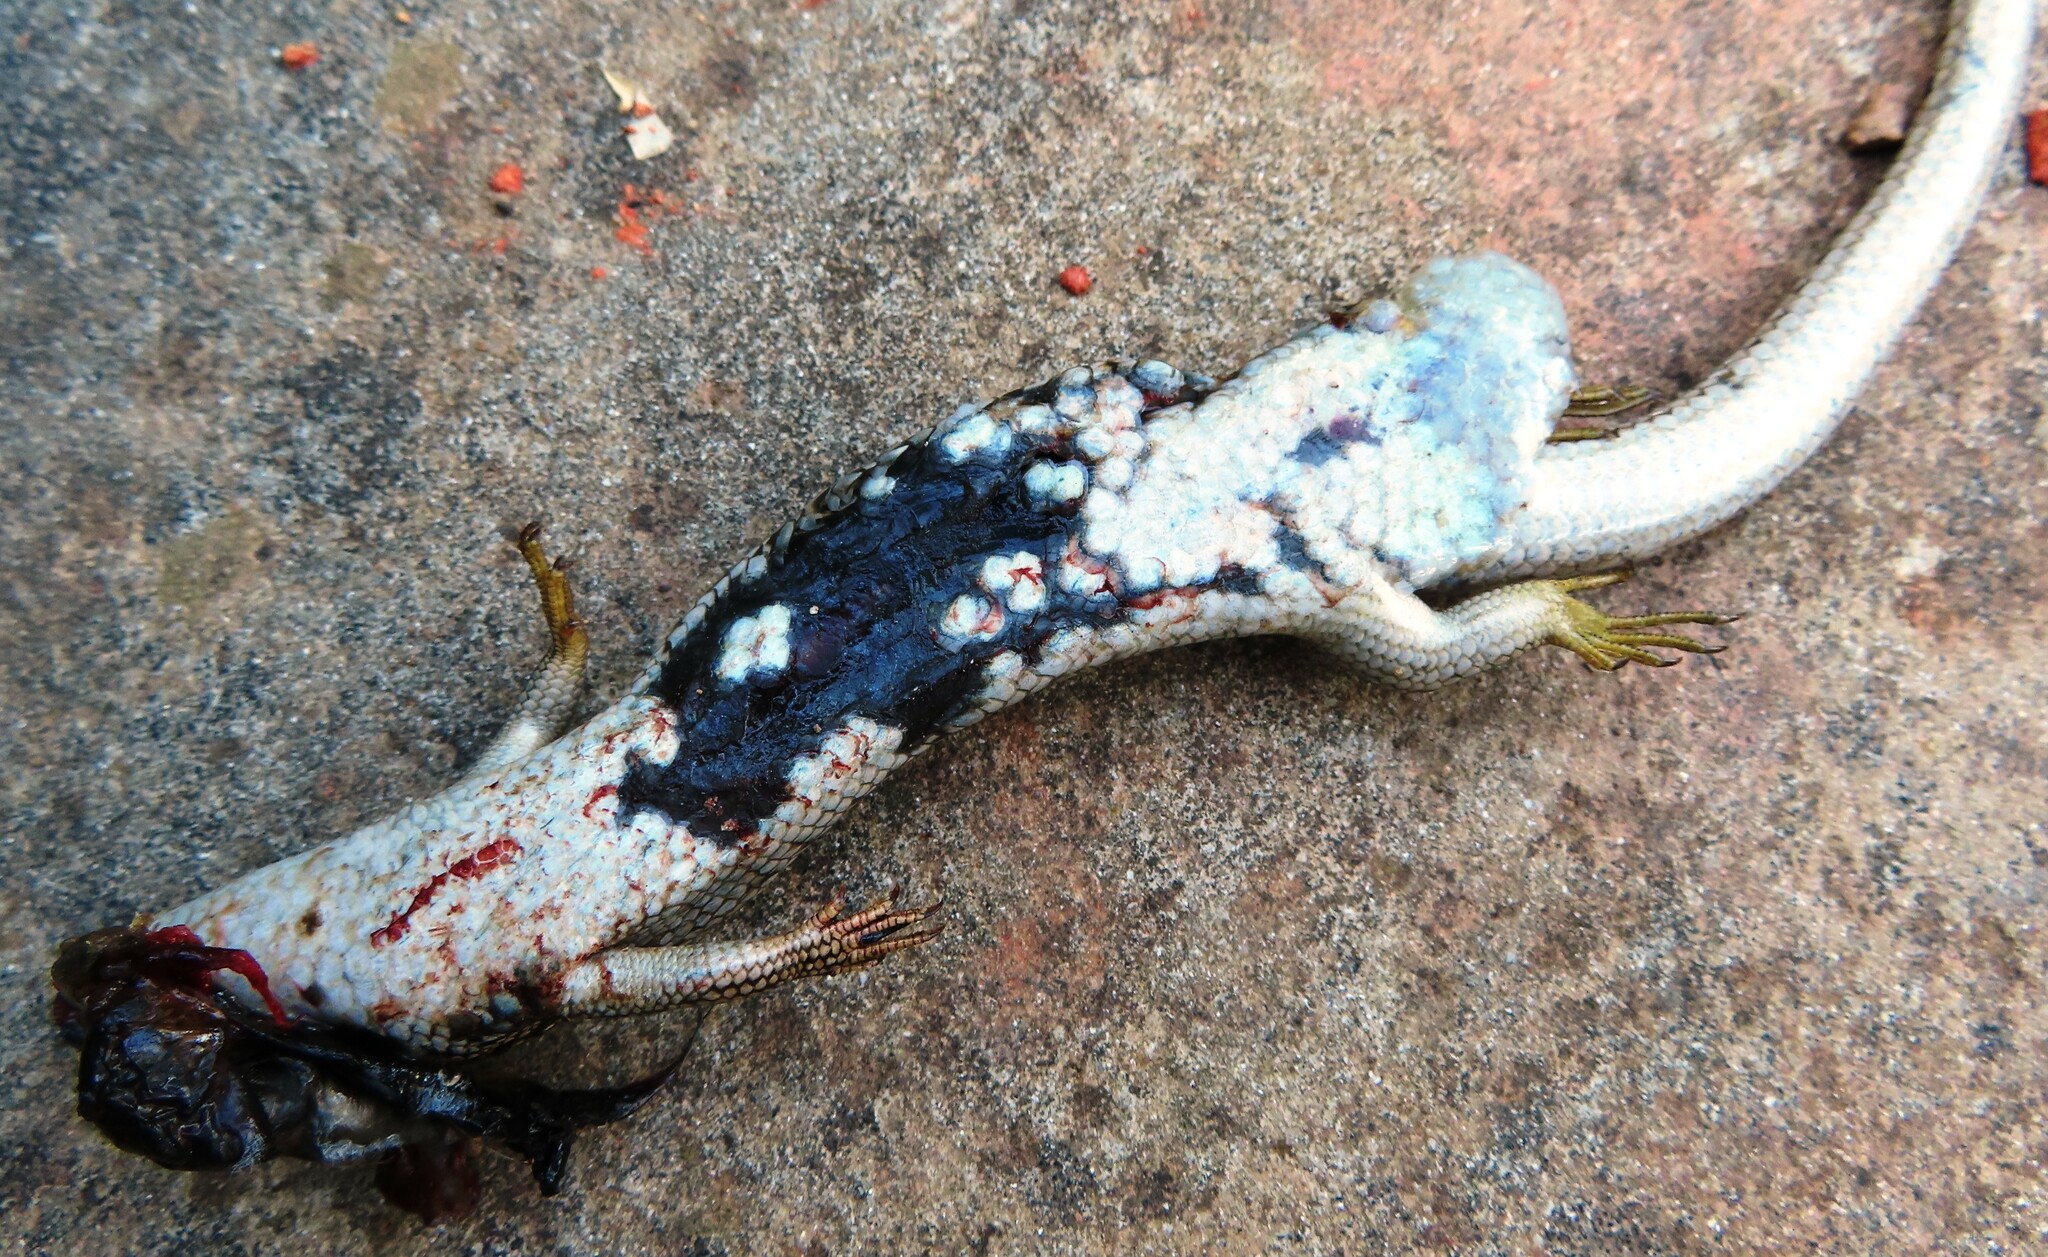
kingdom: Animalia
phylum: Chordata
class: Squamata
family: Scincidae
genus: Trachylepis
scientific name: Trachylepis capensis
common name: Cape skink
